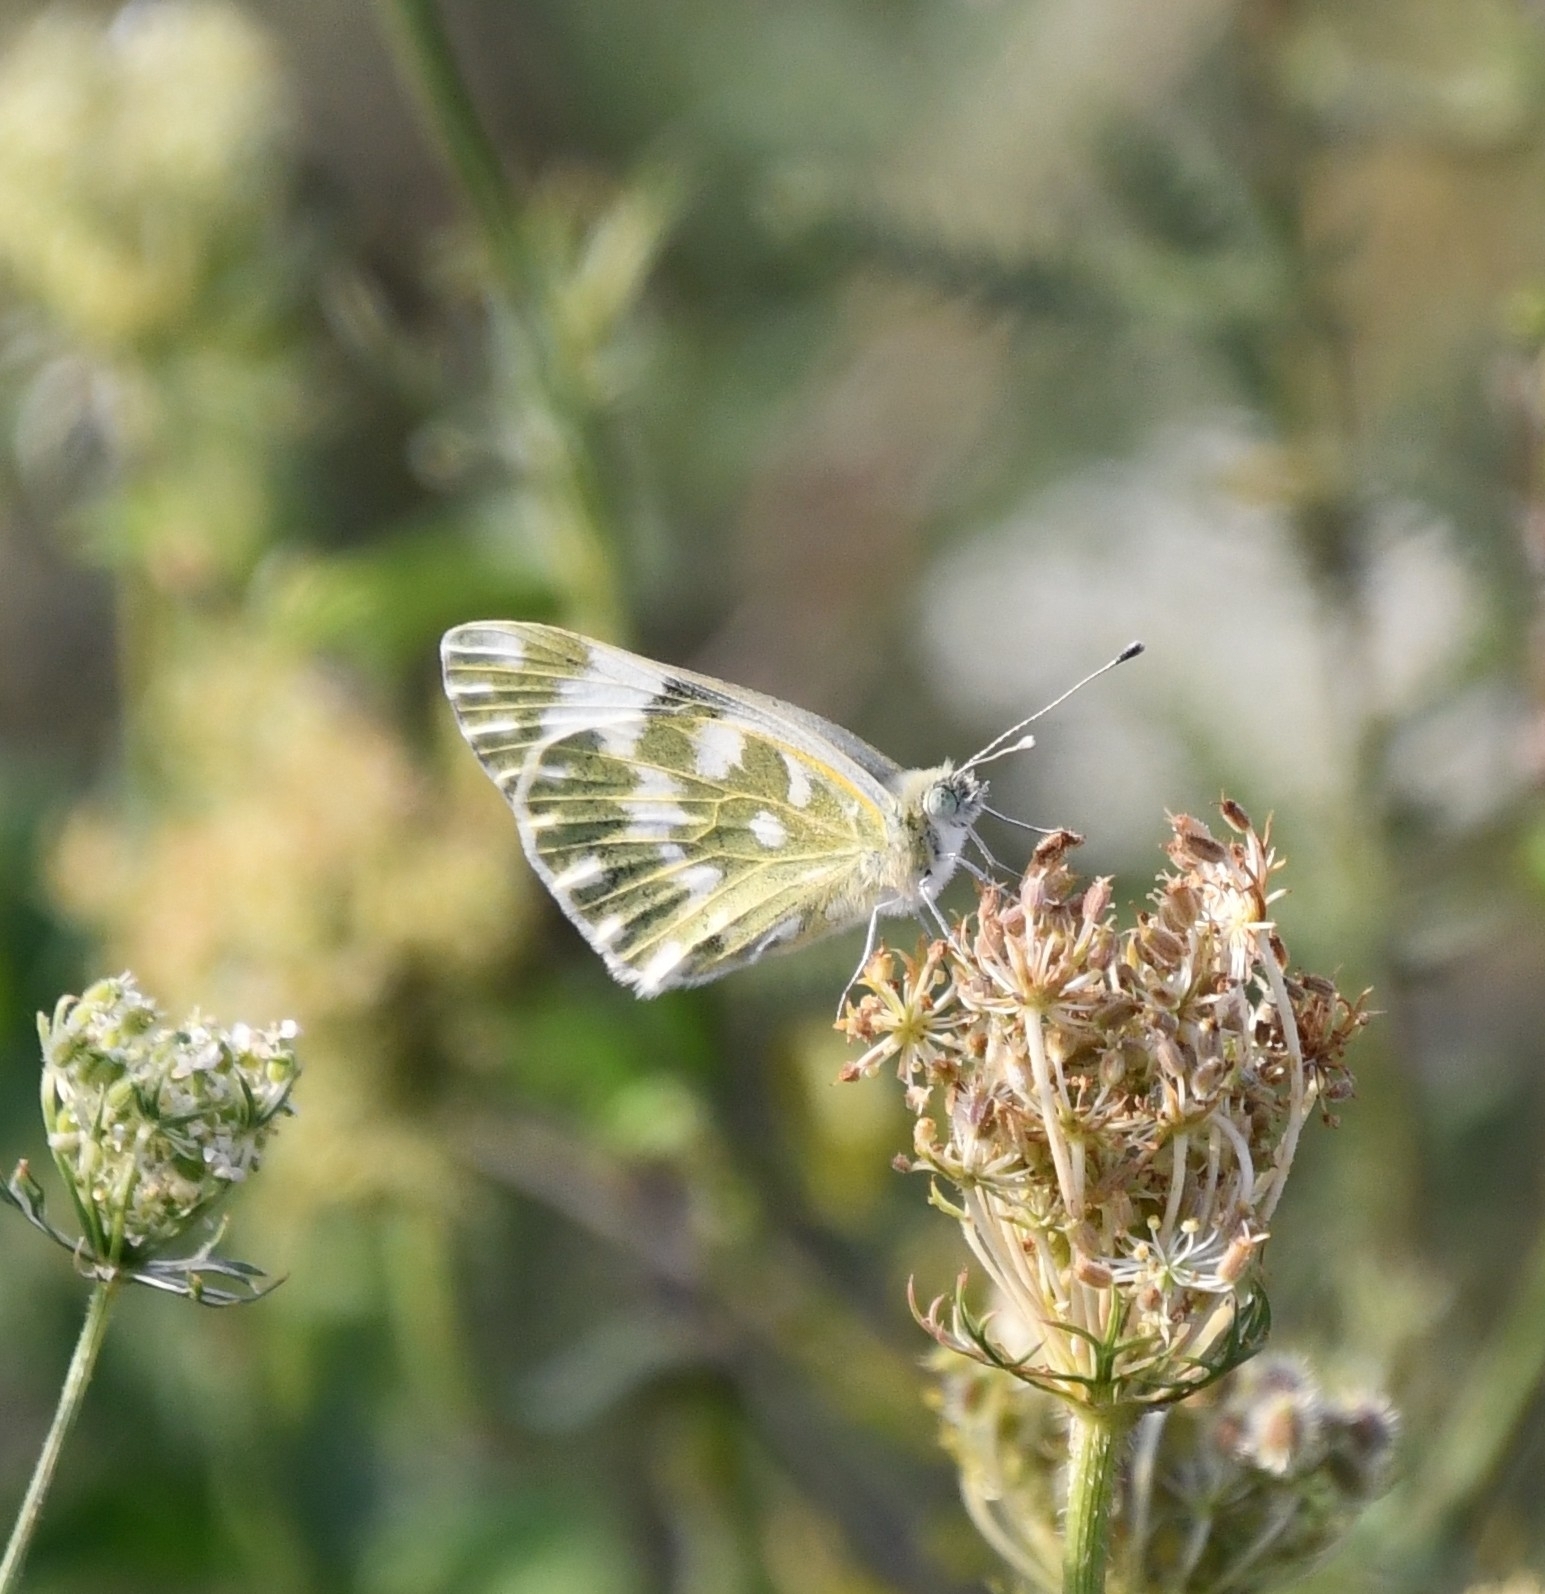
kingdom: Animalia
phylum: Arthropoda
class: Insecta
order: Lepidoptera
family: Pieridae
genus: Pontia
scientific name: Pontia edusa
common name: Eastern bath white
